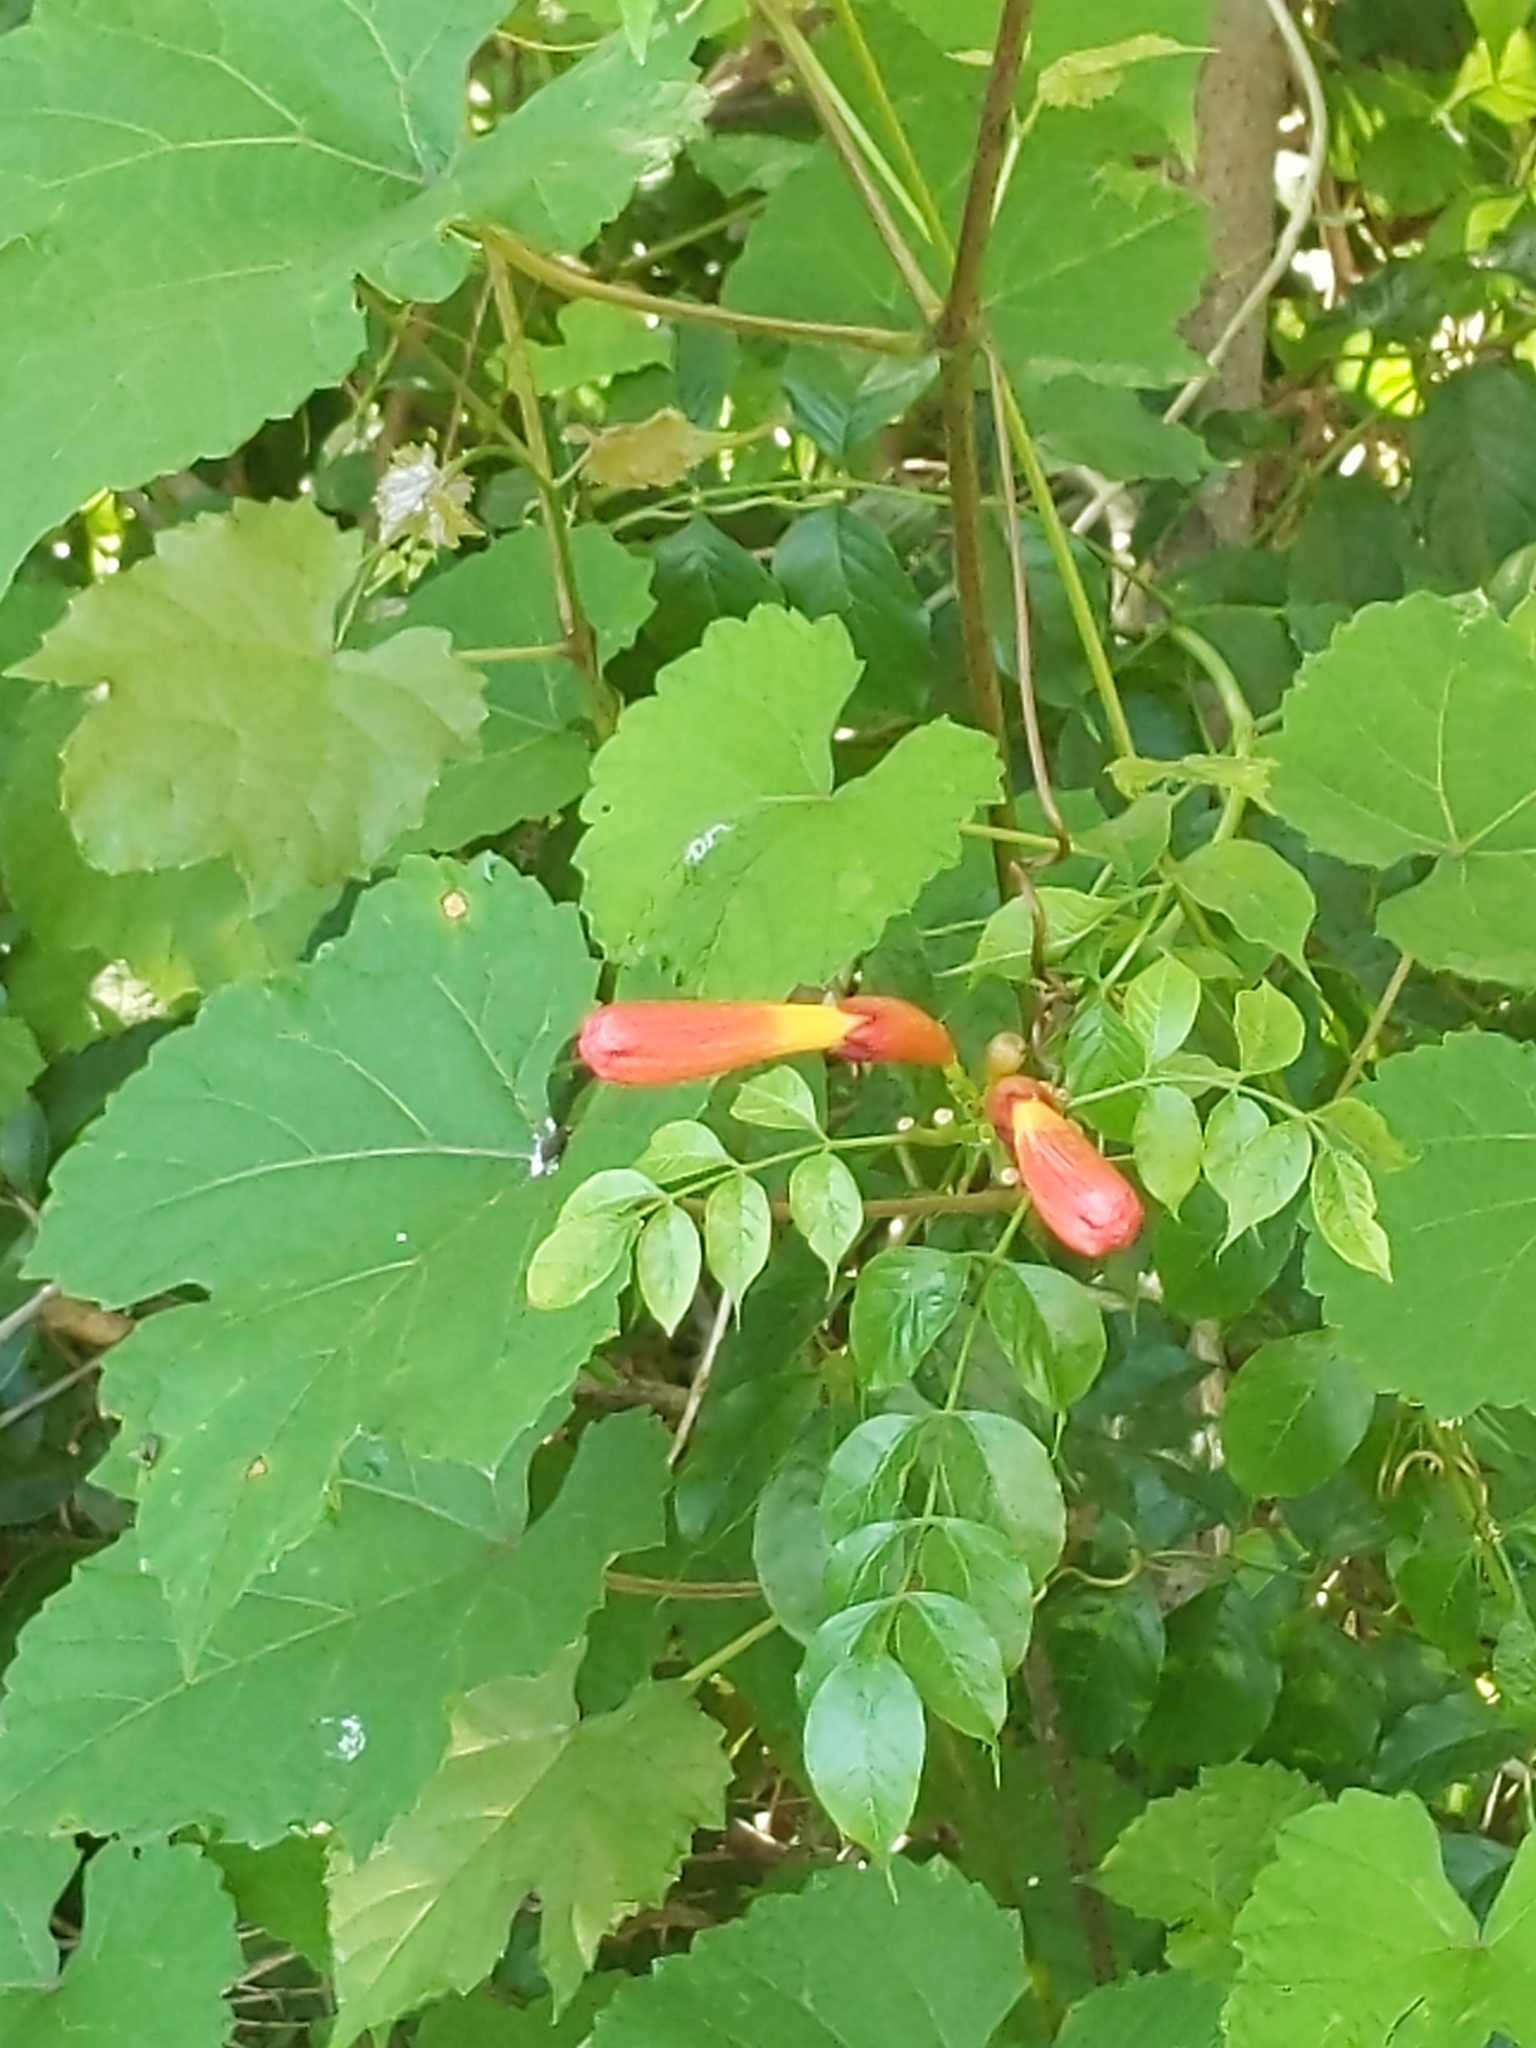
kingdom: Plantae
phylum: Tracheophyta
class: Magnoliopsida
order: Lamiales
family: Bignoniaceae
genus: Campsis
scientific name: Campsis radicans
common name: Trumpet-creeper
